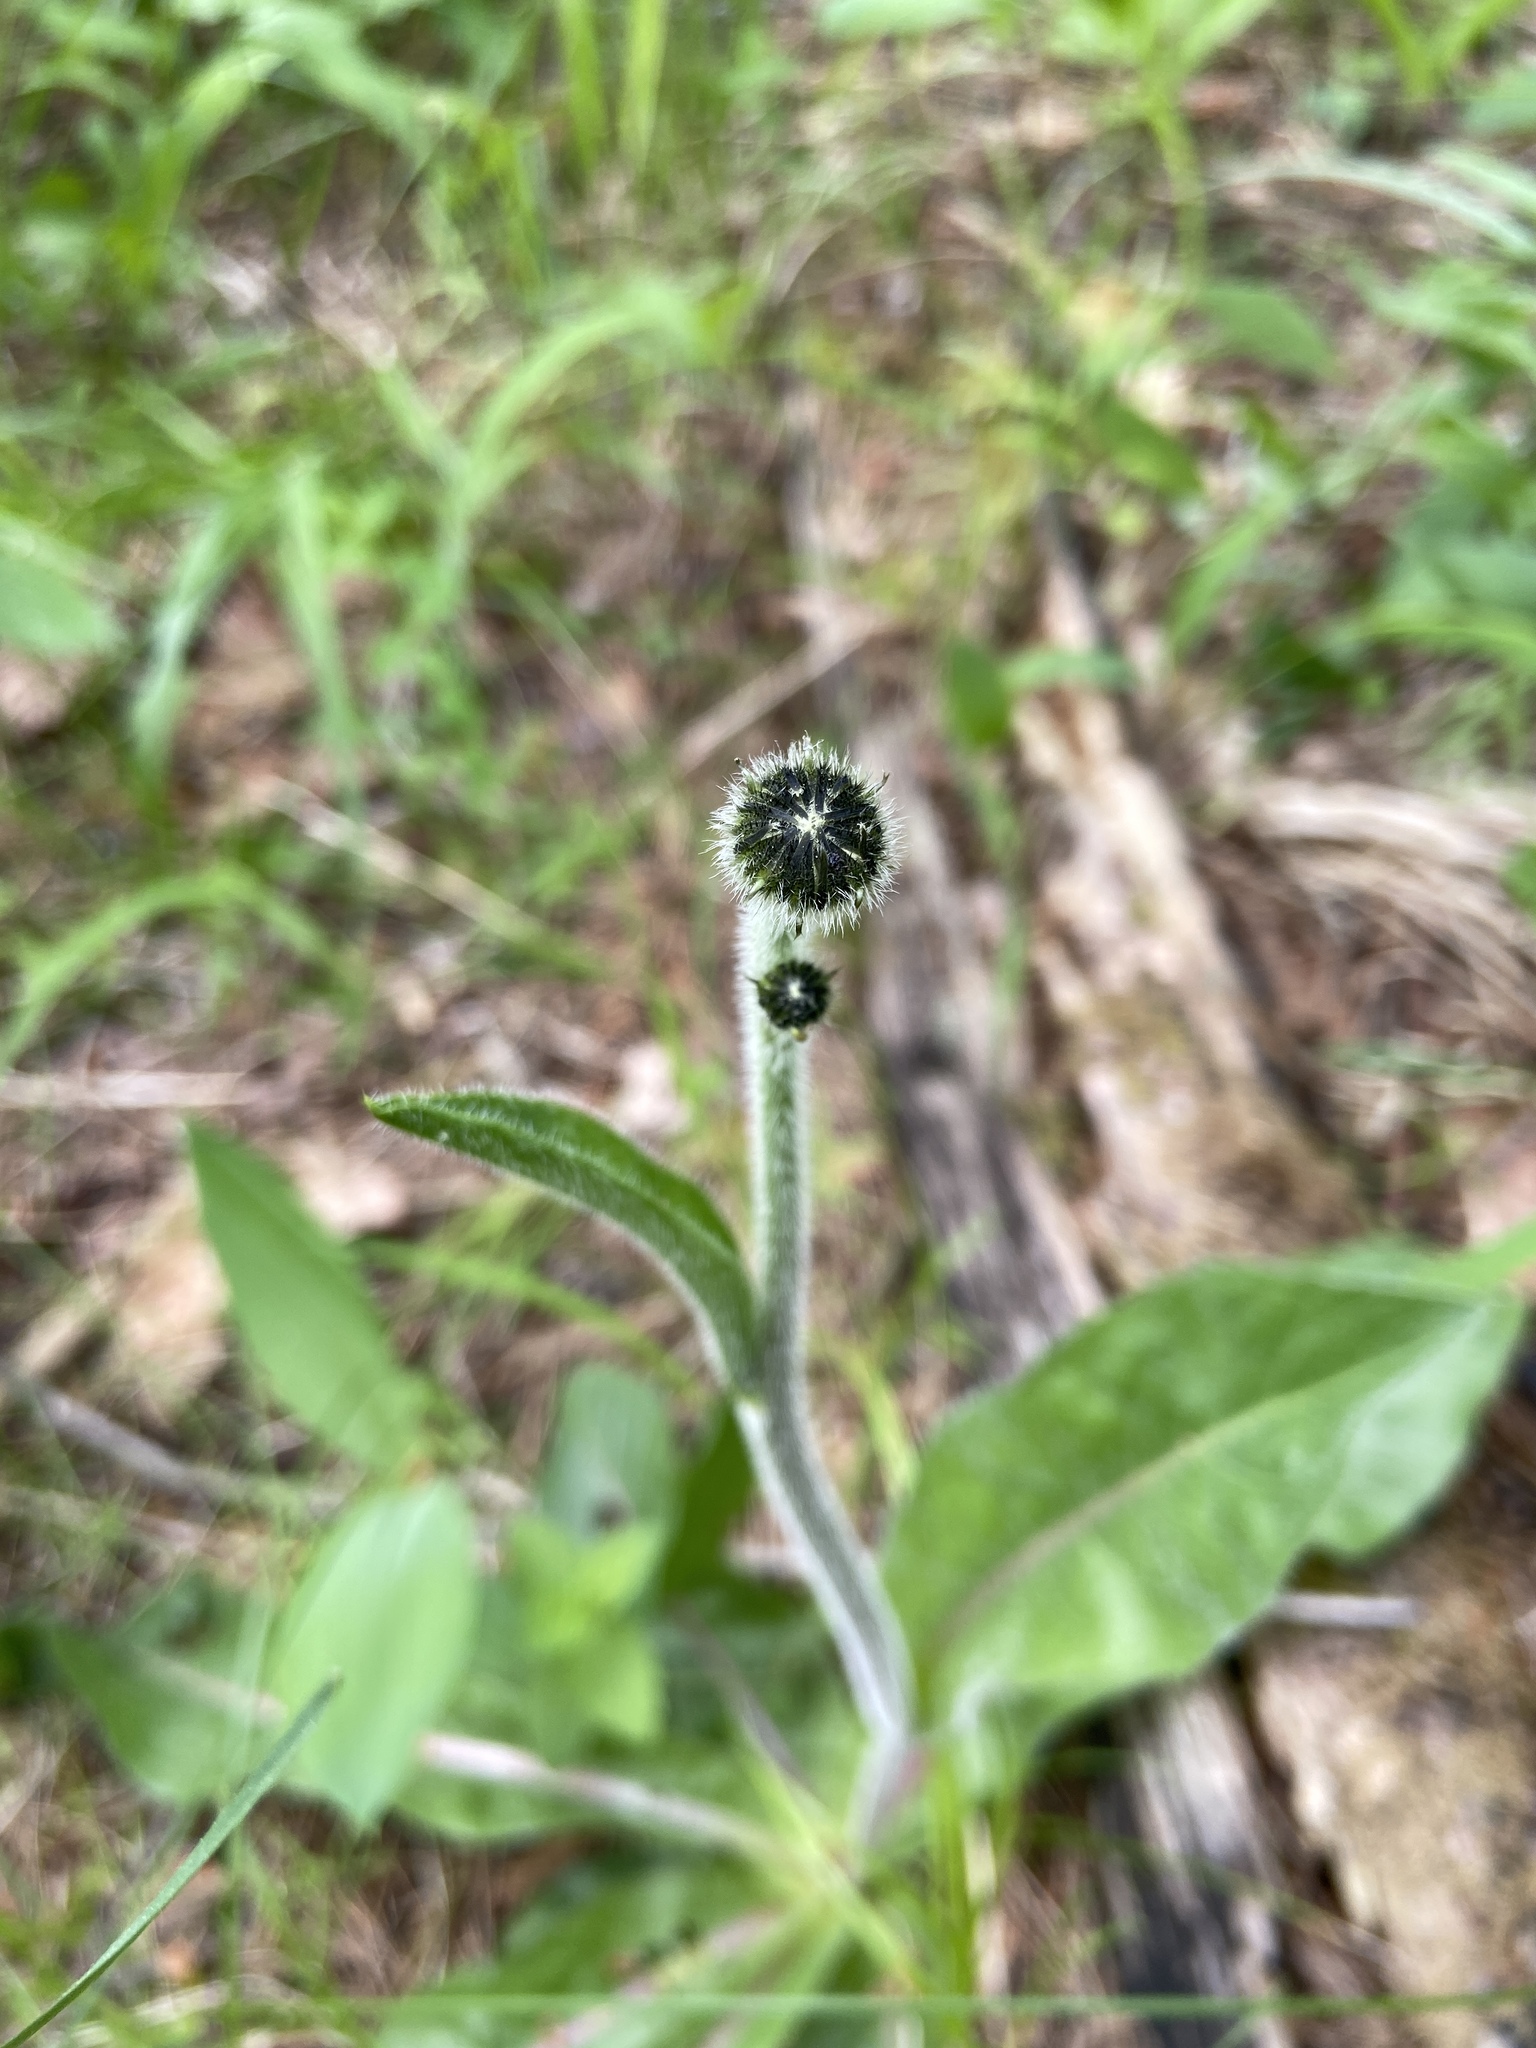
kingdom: Plantae
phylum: Tracheophyta
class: Magnoliopsida
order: Asterales
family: Asteraceae
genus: Trommsdorffia
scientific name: Trommsdorffia maculata
